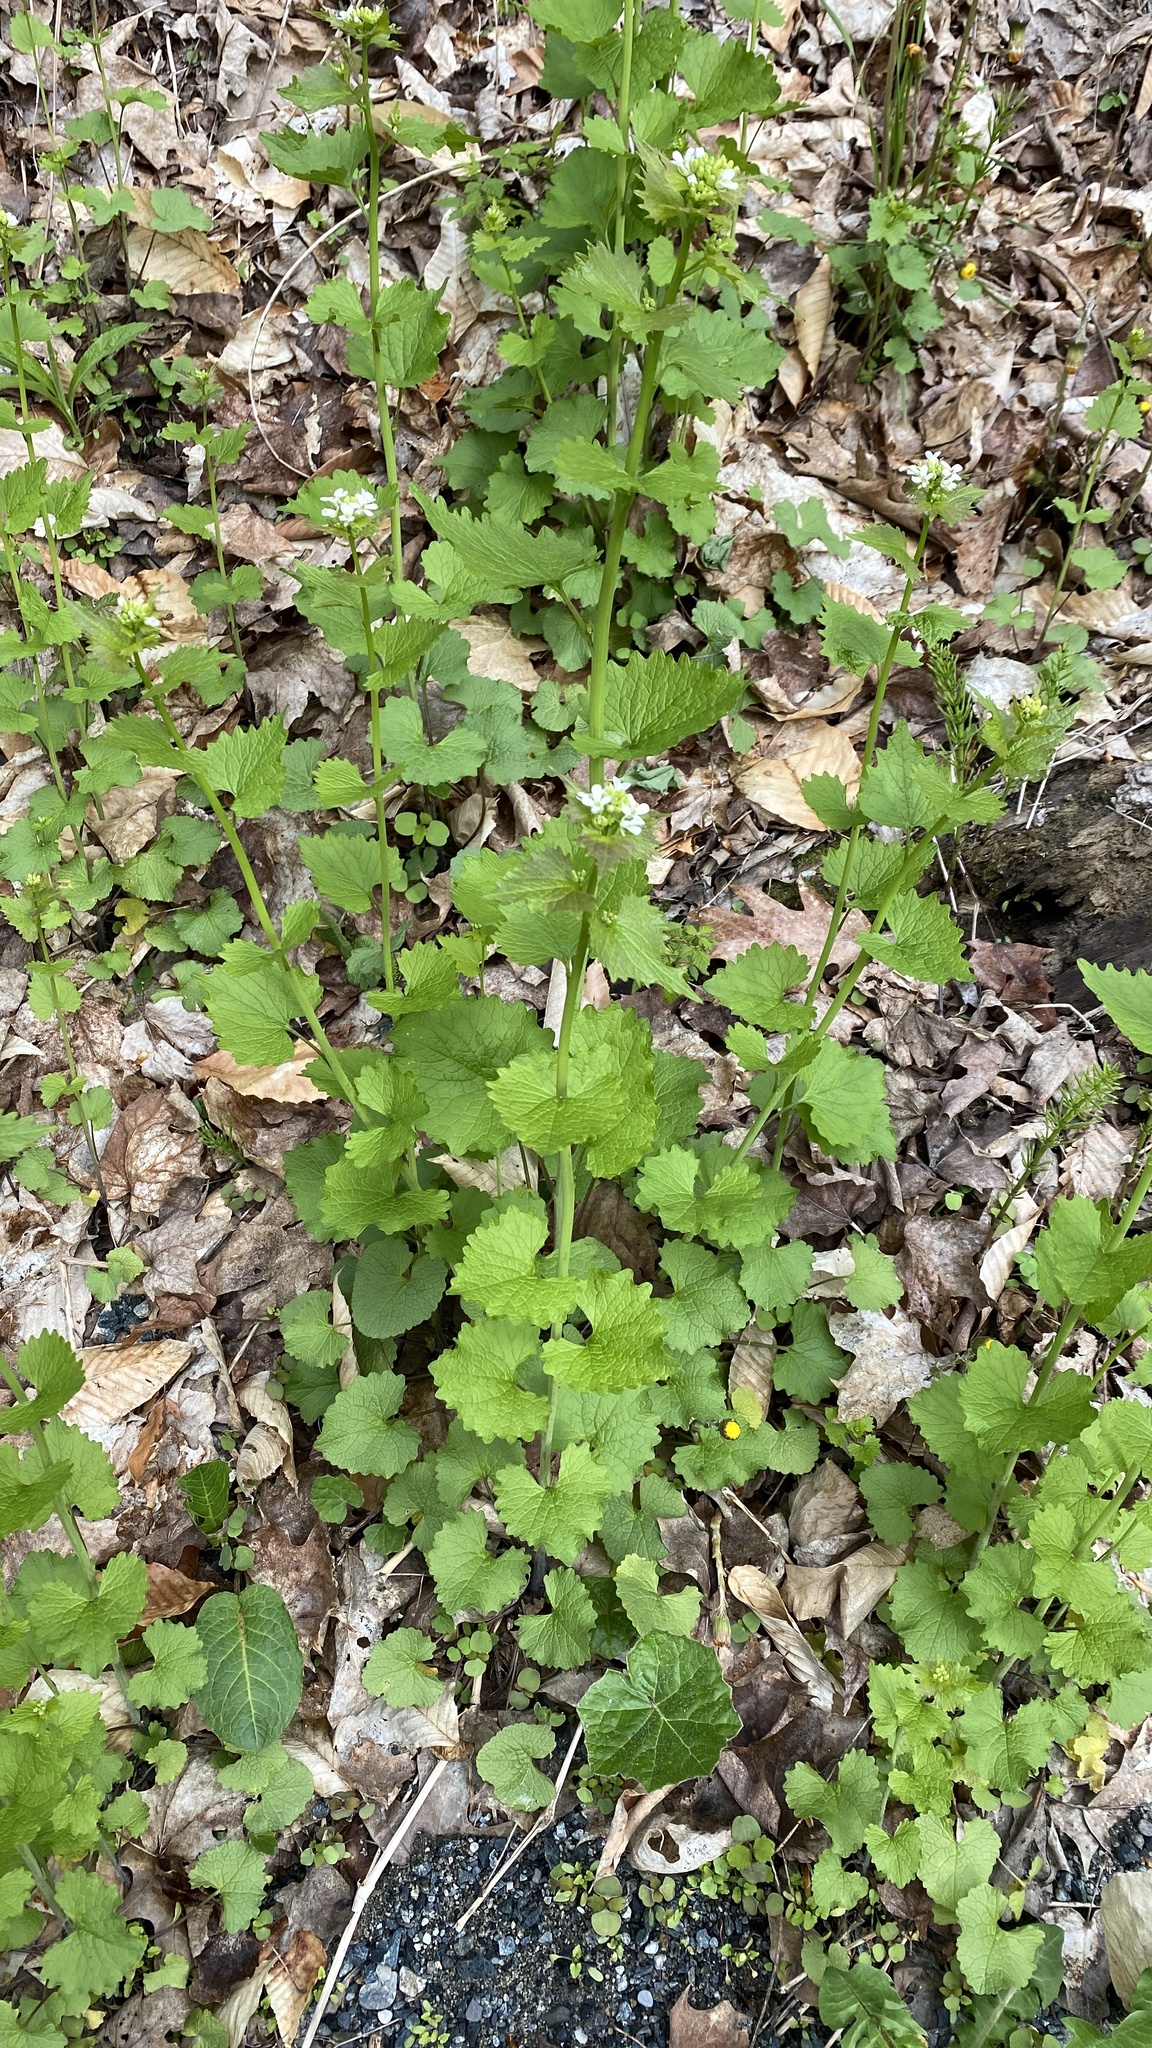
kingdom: Plantae
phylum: Tracheophyta
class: Magnoliopsida
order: Brassicales
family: Brassicaceae
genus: Alliaria
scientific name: Alliaria petiolata
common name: Garlic mustard
